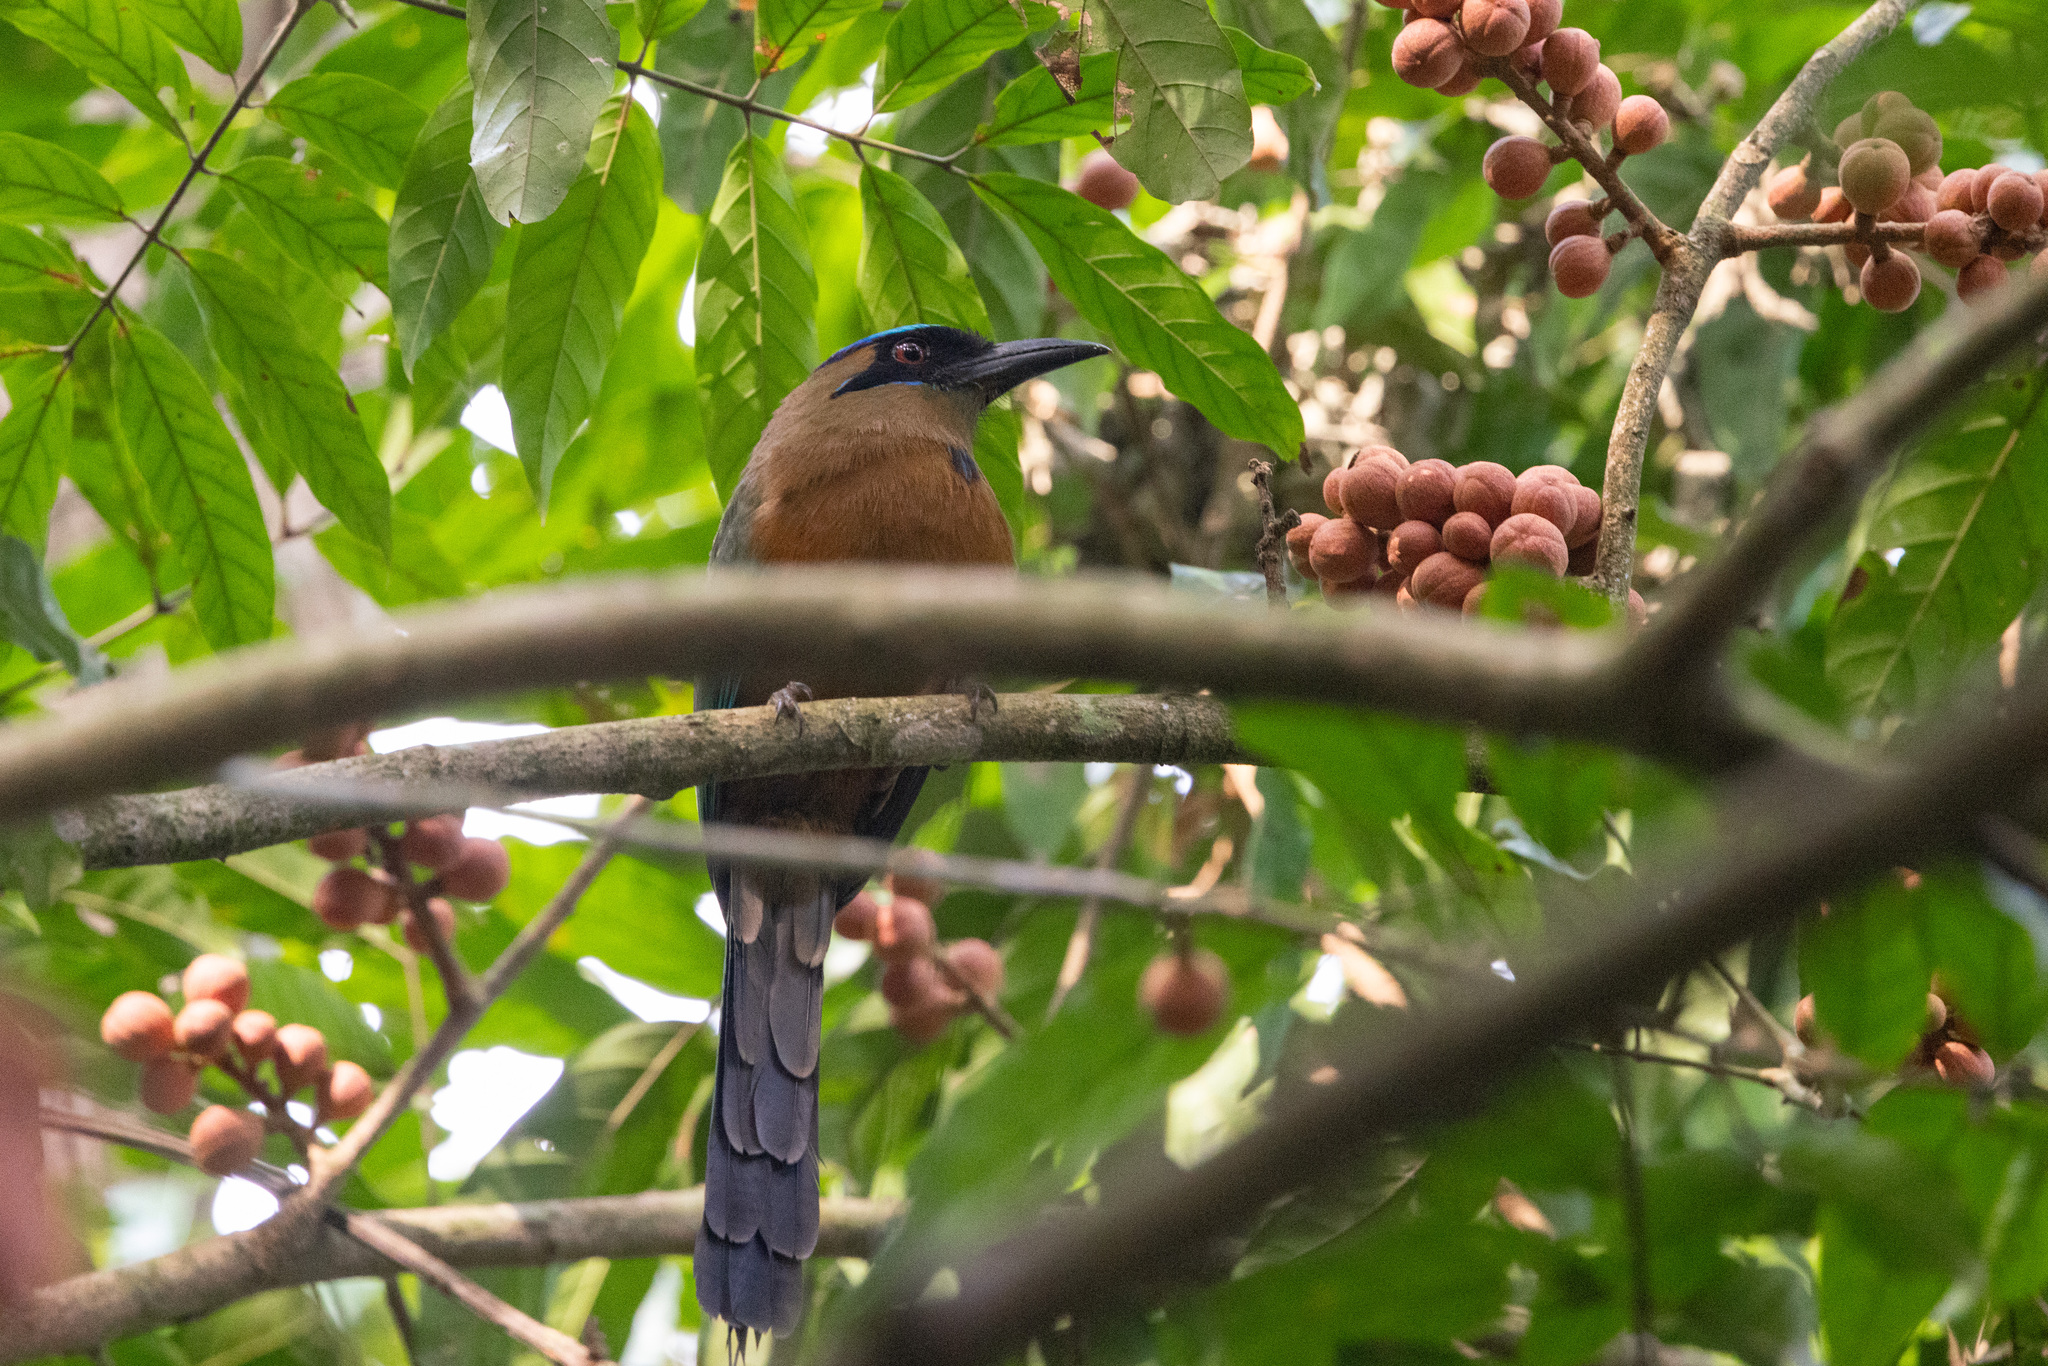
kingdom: Animalia
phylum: Chordata
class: Aves
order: Coraciiformes
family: Momotidae
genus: Momotus
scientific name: Momotus subrufescens
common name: Whooping motmot
